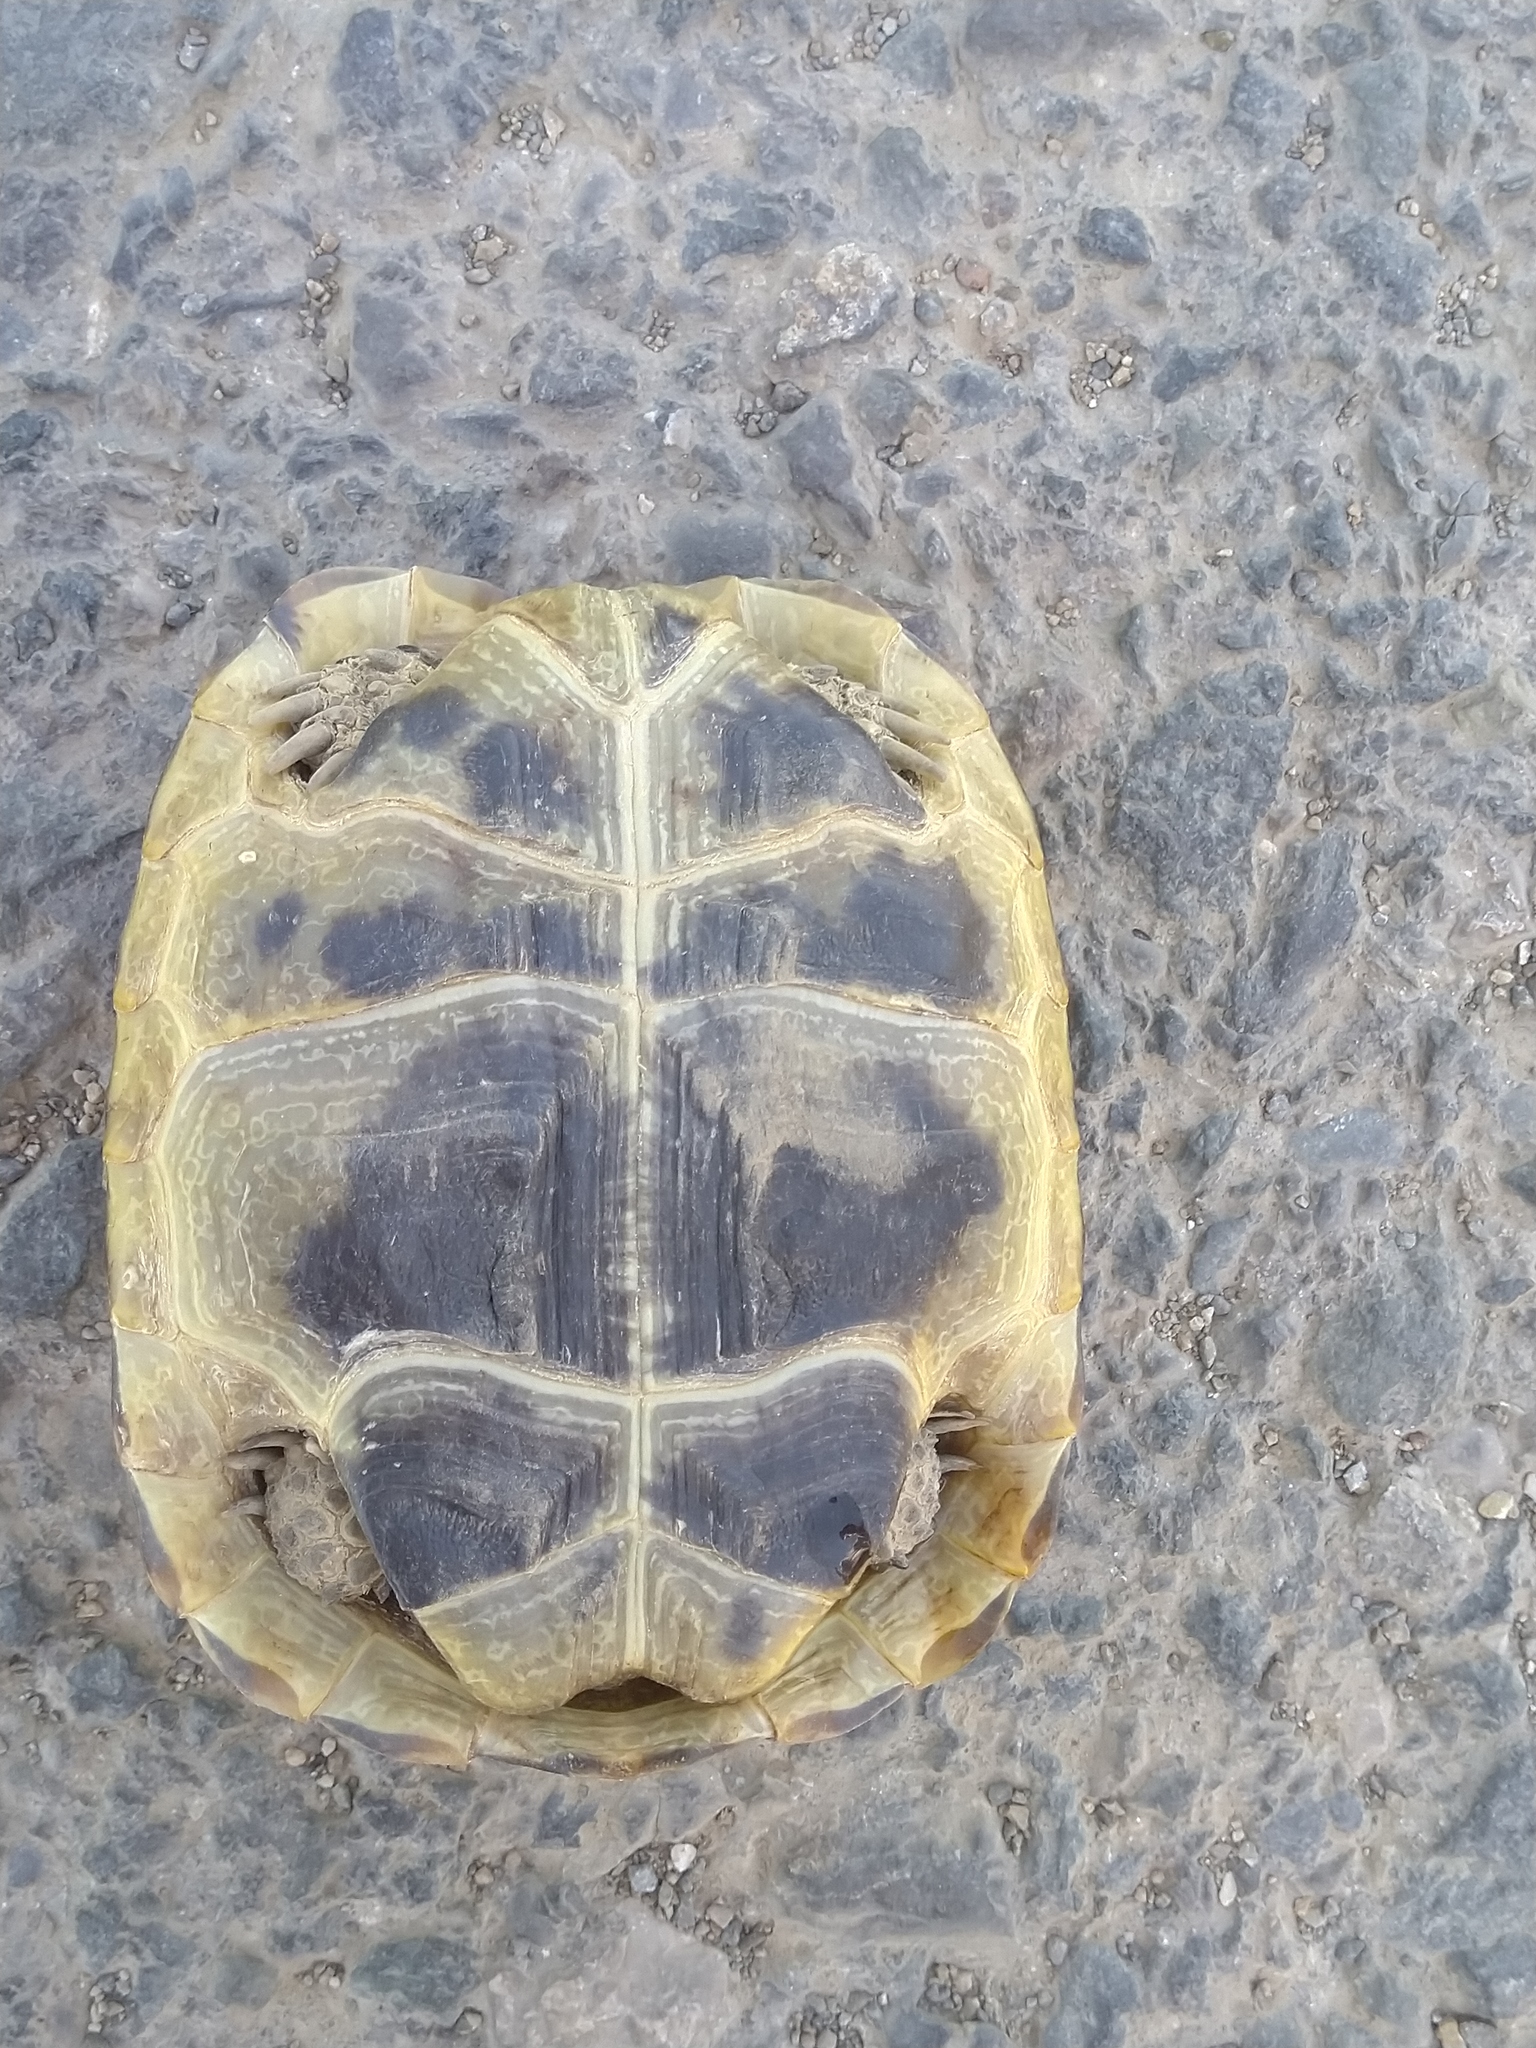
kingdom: Animalia
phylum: Chordata
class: Testudines
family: Testudinidae
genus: Testudo
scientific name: Testudo graeca
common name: Common tortoise
